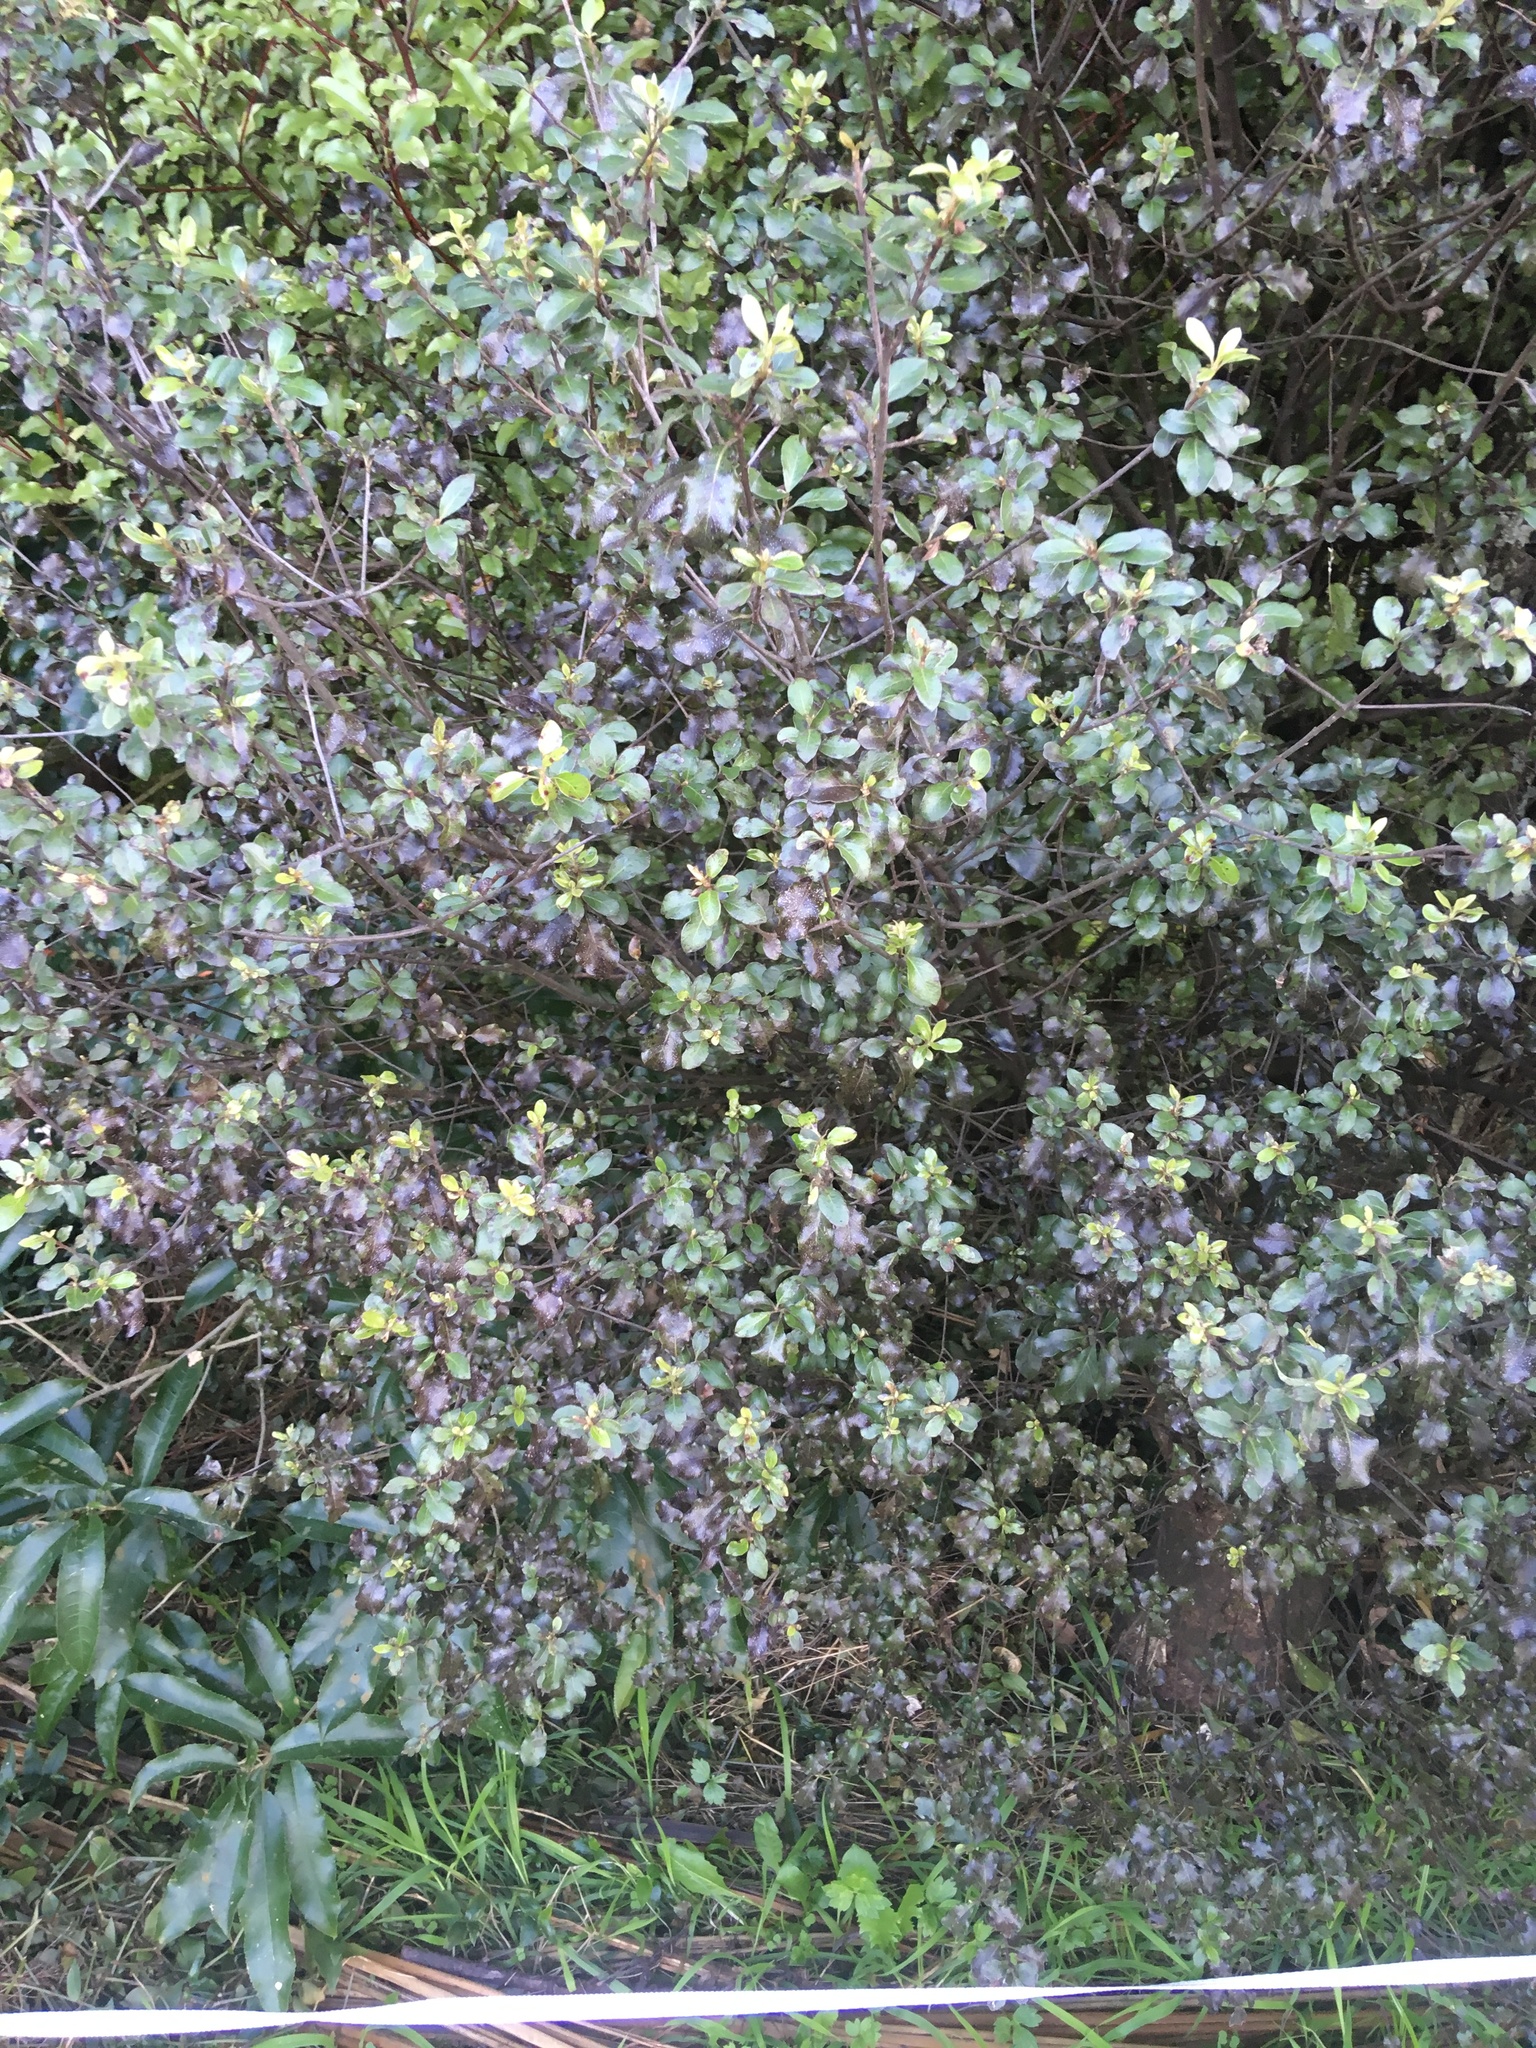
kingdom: Plantae
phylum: Tracheophyta
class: Magnoliopsida
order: Ericales
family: Primulaceae
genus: Myrsine
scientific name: Myrsine australis
